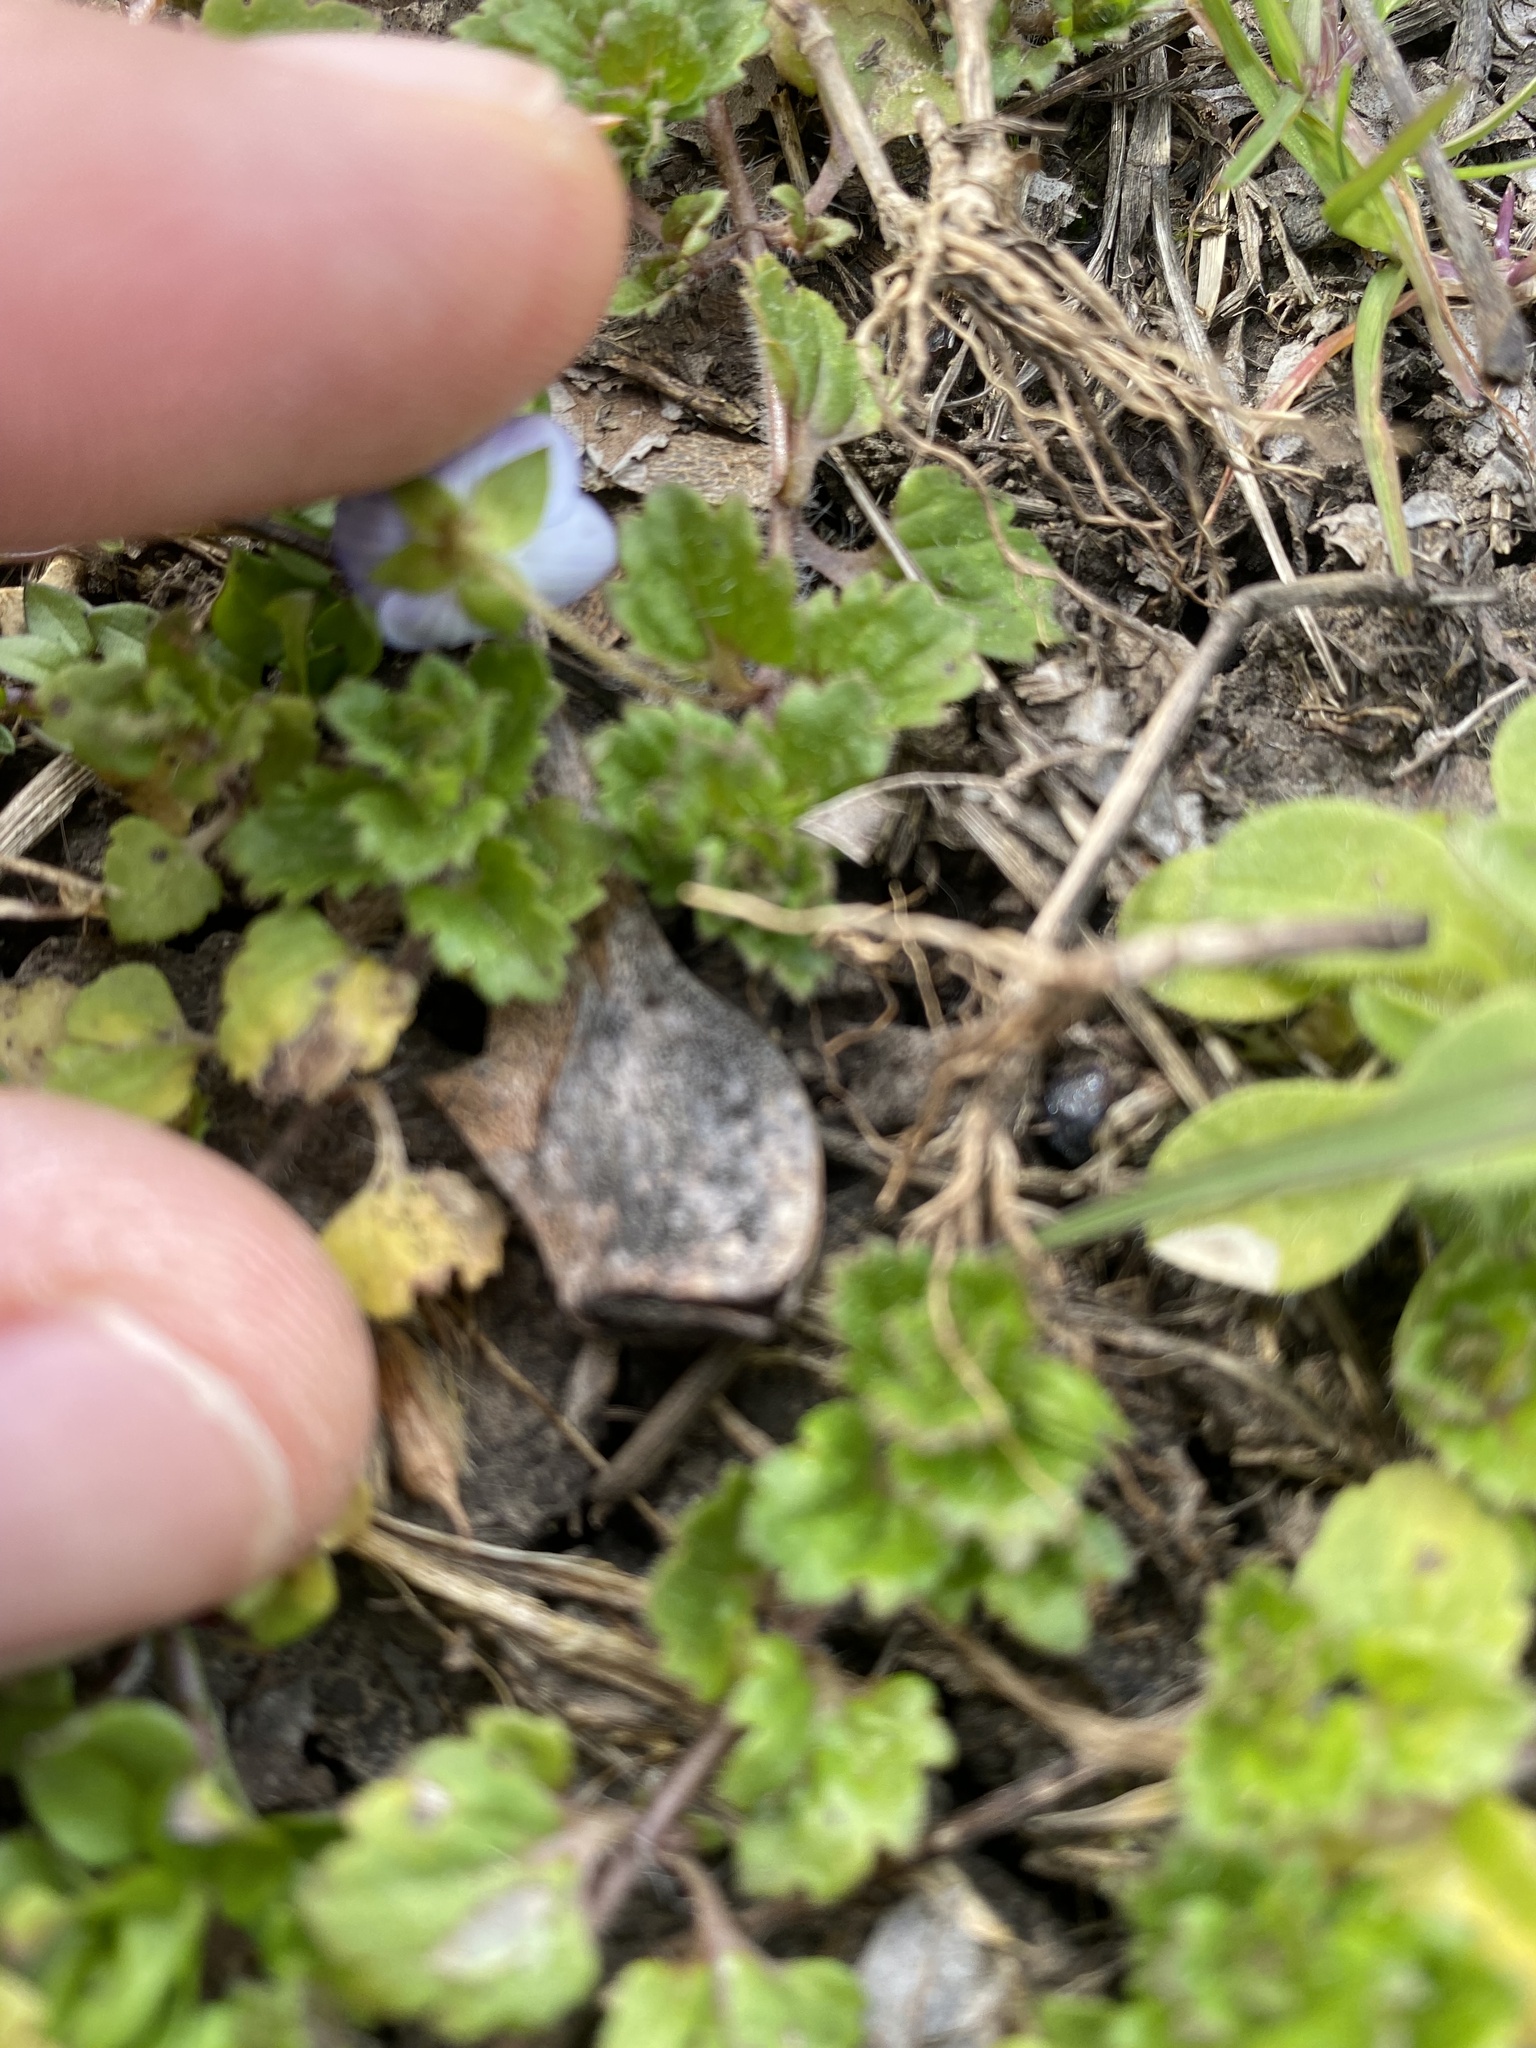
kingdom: Plantae
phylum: Tracheophyta
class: Magnoliopsida
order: Lamiales
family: Plantaginaceae
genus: Veronica
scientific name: Veronica persica
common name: Common field-speedwell
